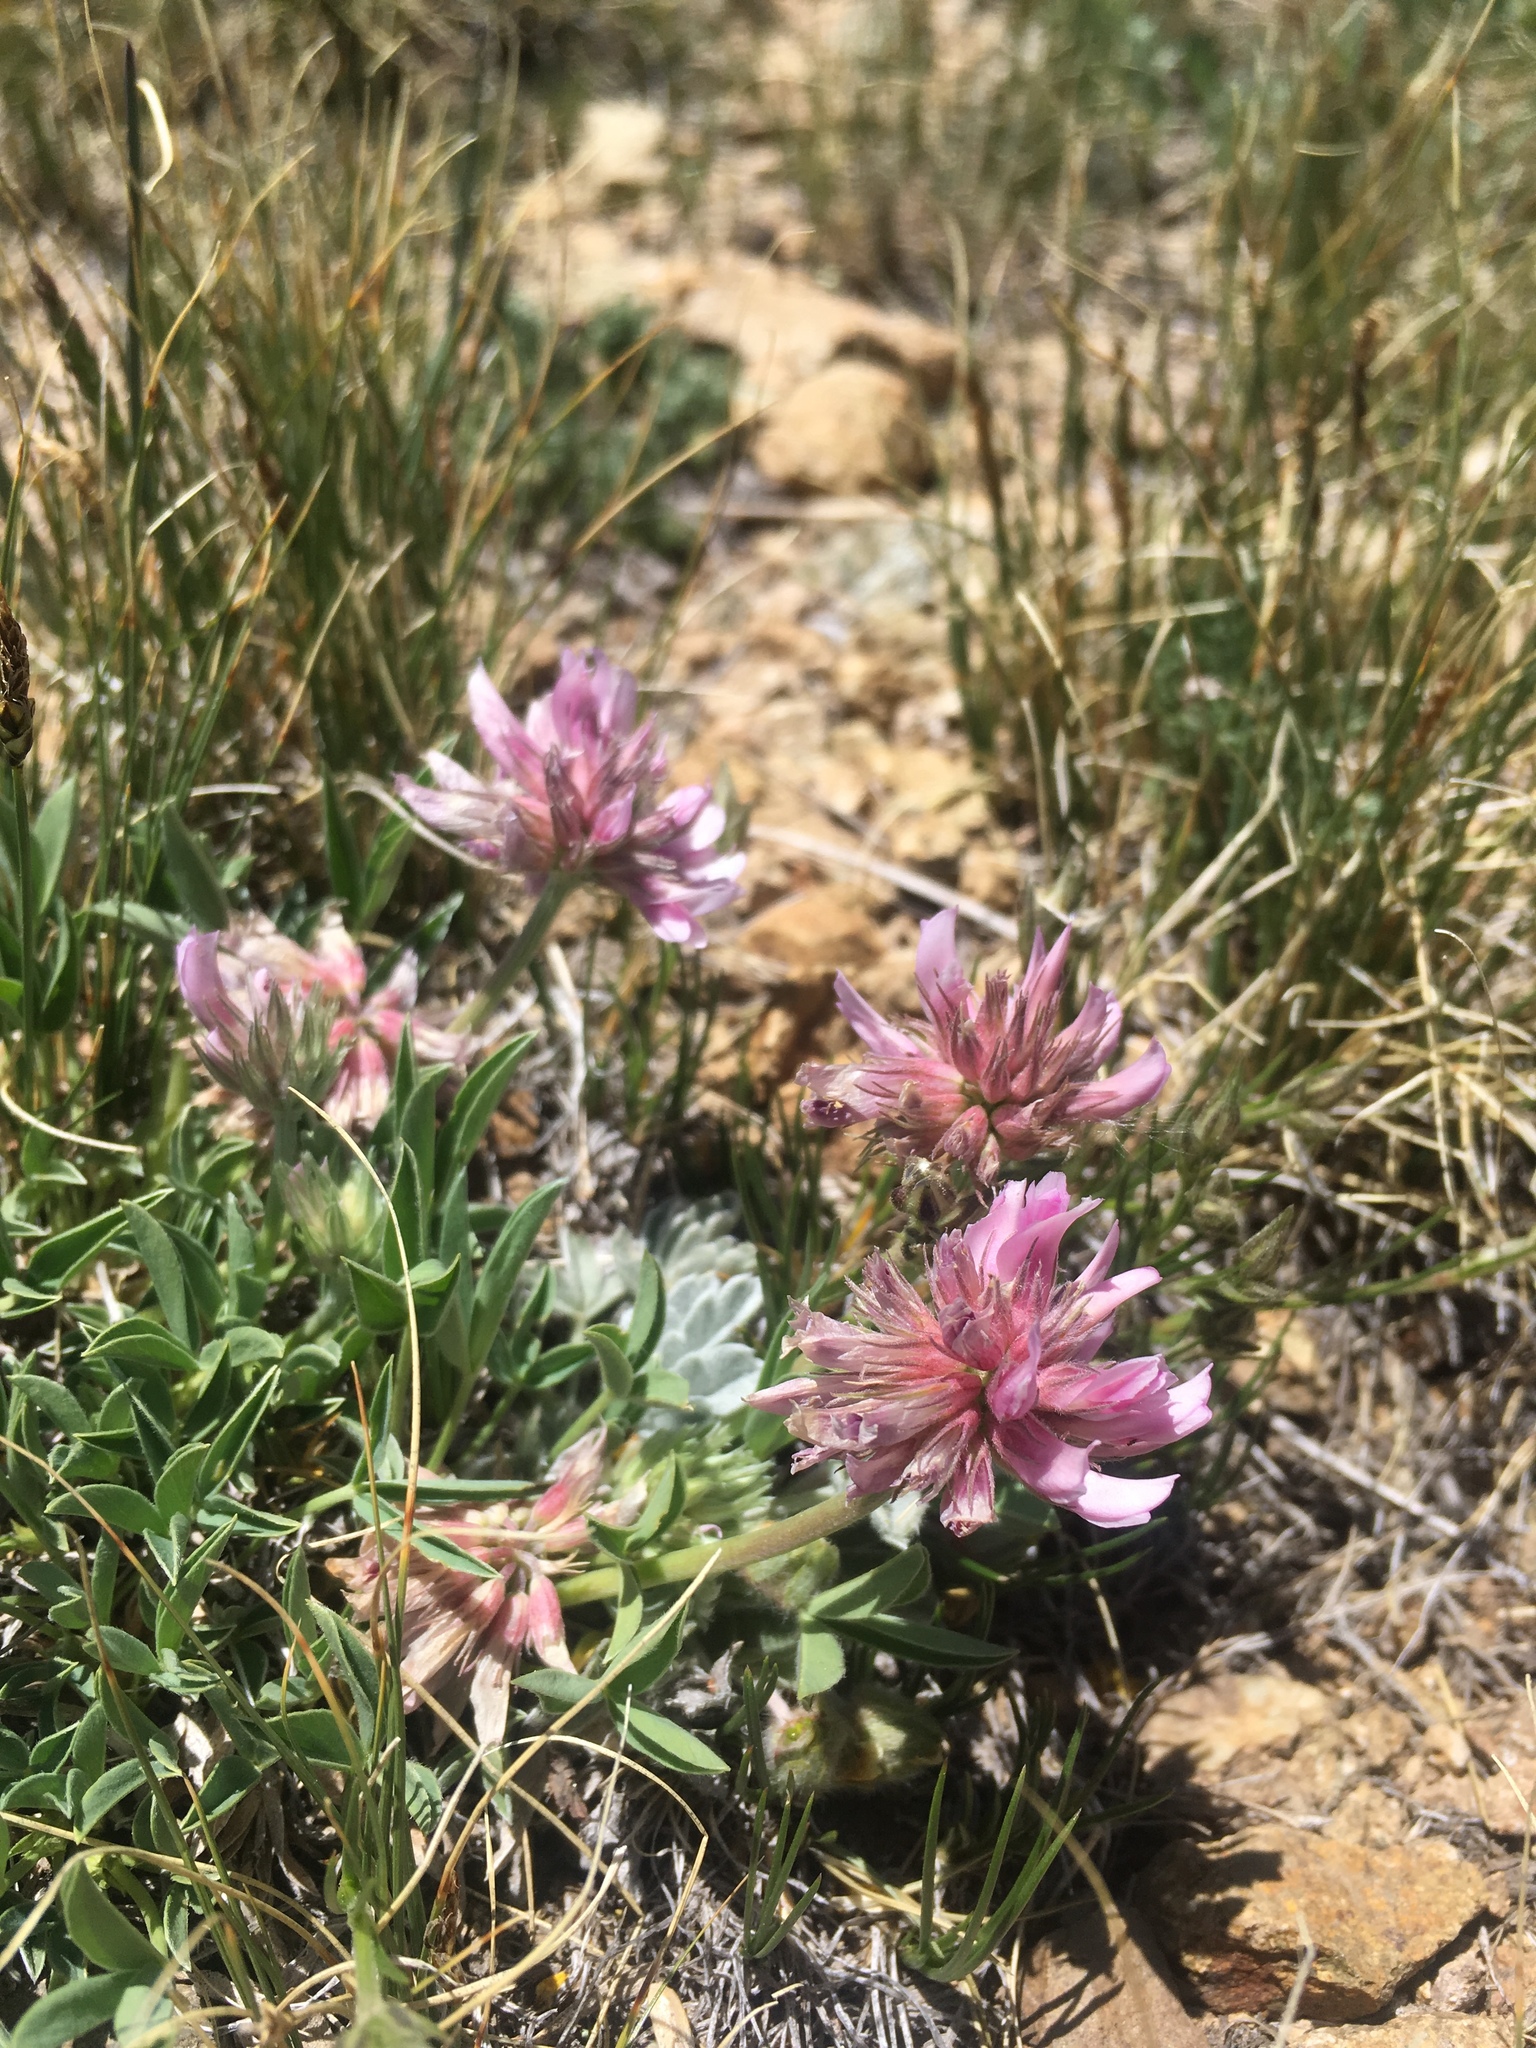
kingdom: Plantae
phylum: Tracheophyta
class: Magnoliopsida
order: Fabales
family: Fabaceae
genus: Trifolium
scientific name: Trifolium attenuatum
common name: Rocky mountain clover
